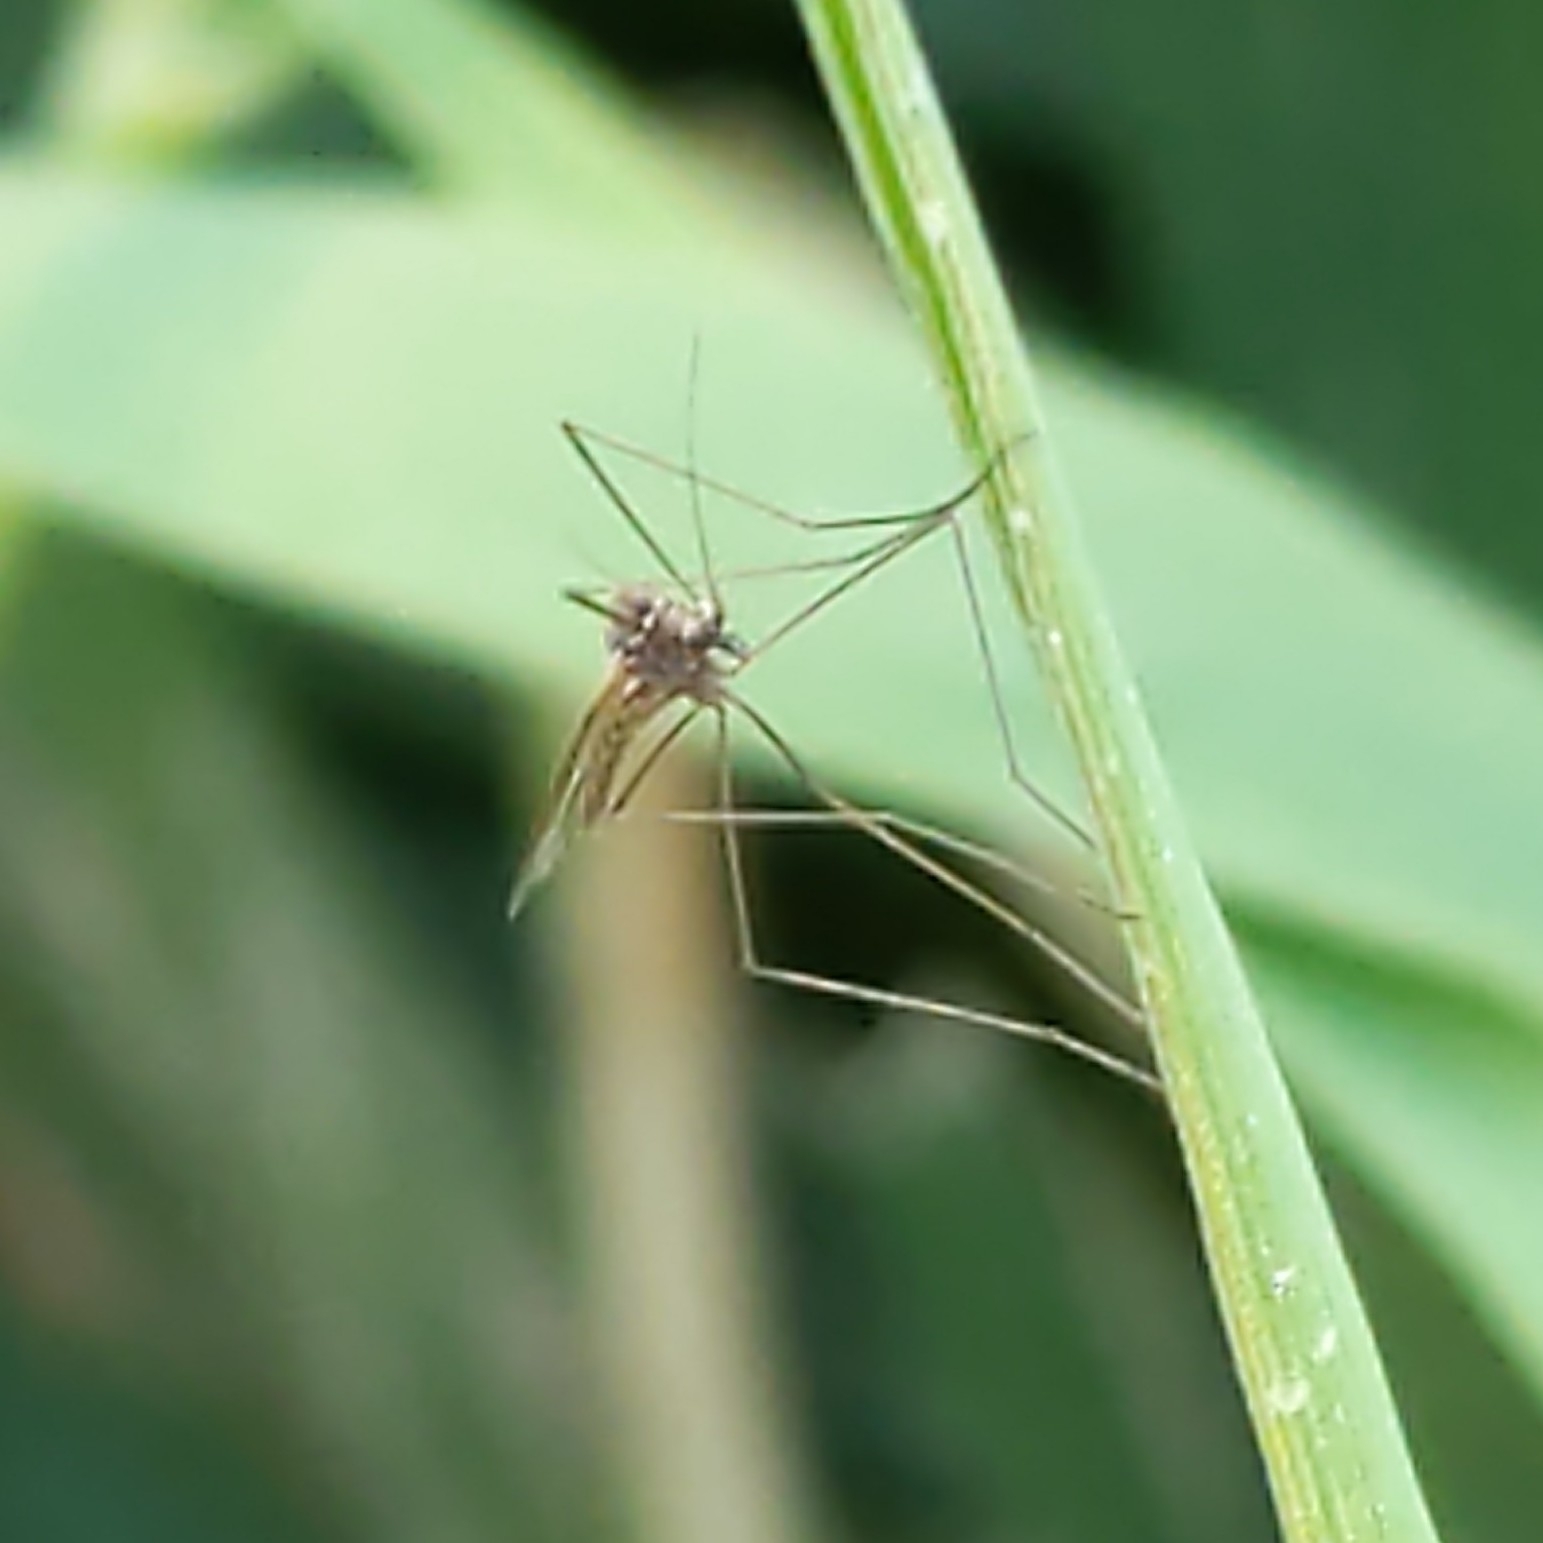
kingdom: Animalia
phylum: Arthropoda
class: Insecta
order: Diptera
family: Trichoceridae
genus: Trichocera
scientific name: Trichocera
